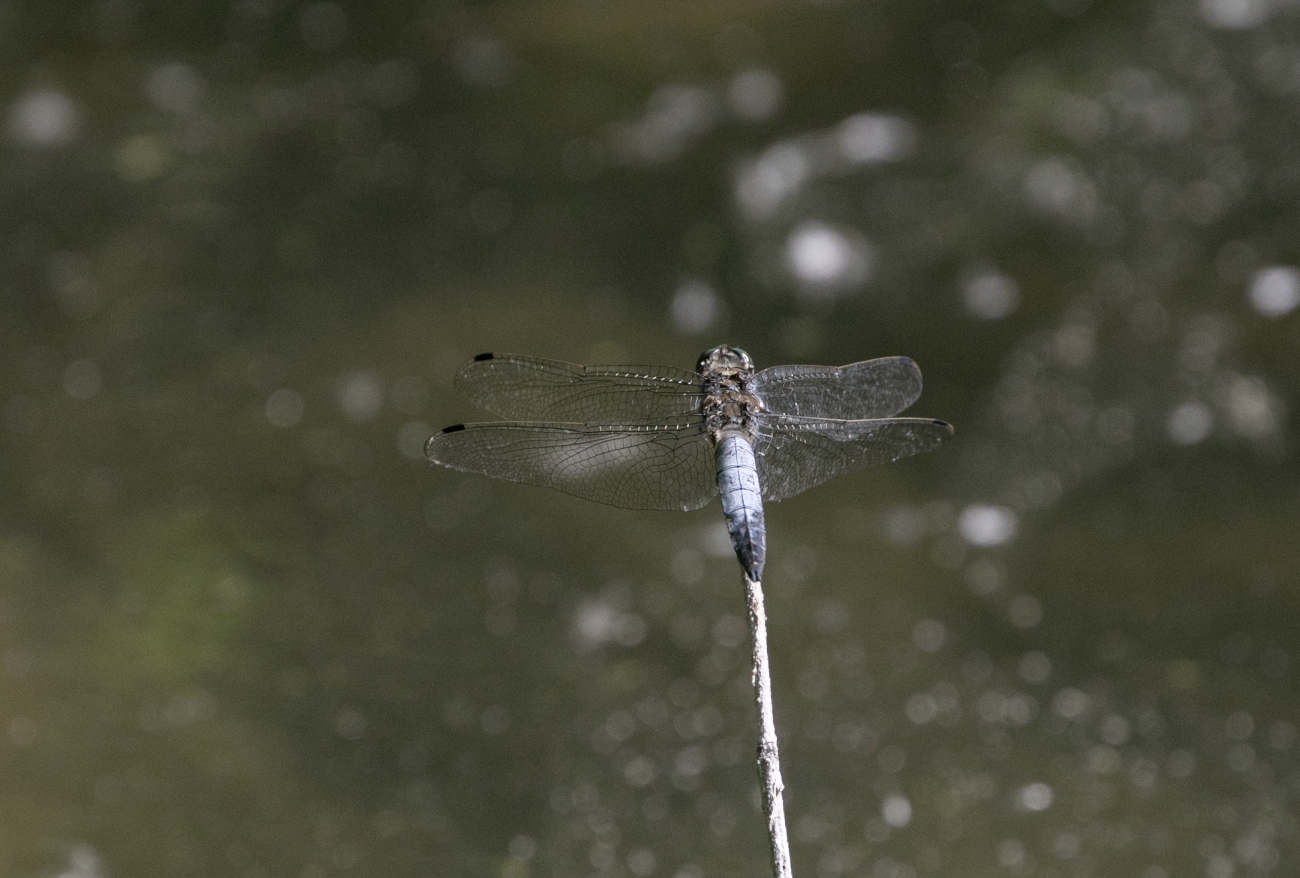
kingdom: Animalia
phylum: Arthropoda
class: Insecta
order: Odonata
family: Libellulidae
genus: Orthetrum
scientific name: Orthetrum cancellatum
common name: Black-tailed skimmer
